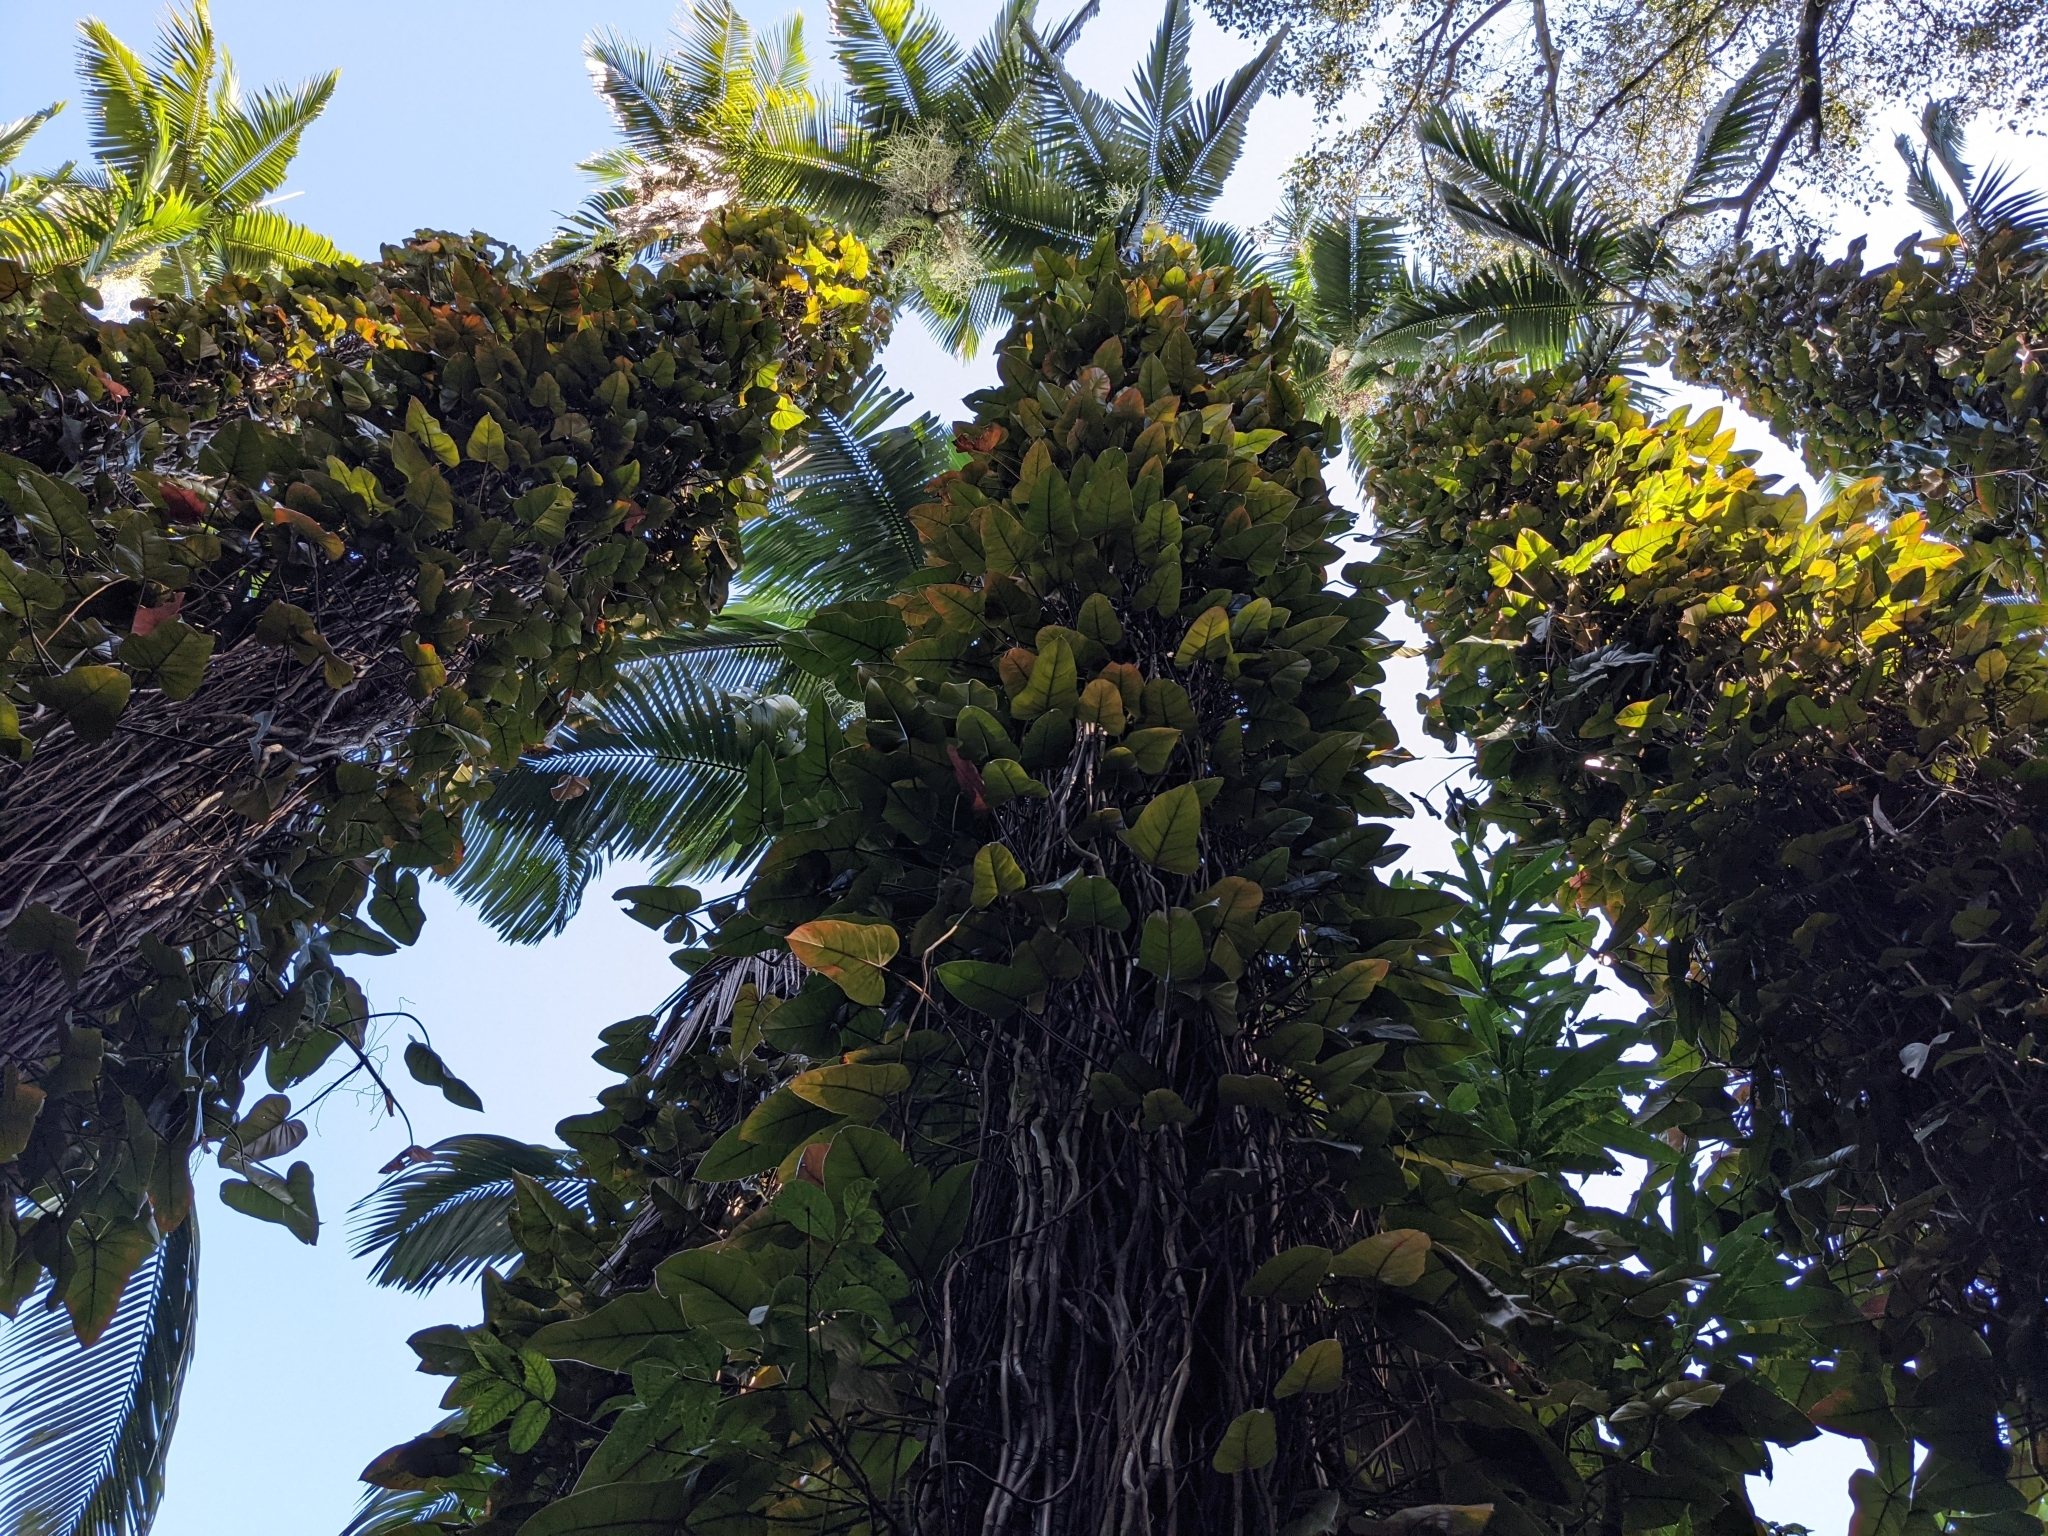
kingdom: Plantae
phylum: Tracheophyta
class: Liliopsida
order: Alismatales
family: Araceae
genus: Philodendron
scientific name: Philodendron erubescens
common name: Philodendron
